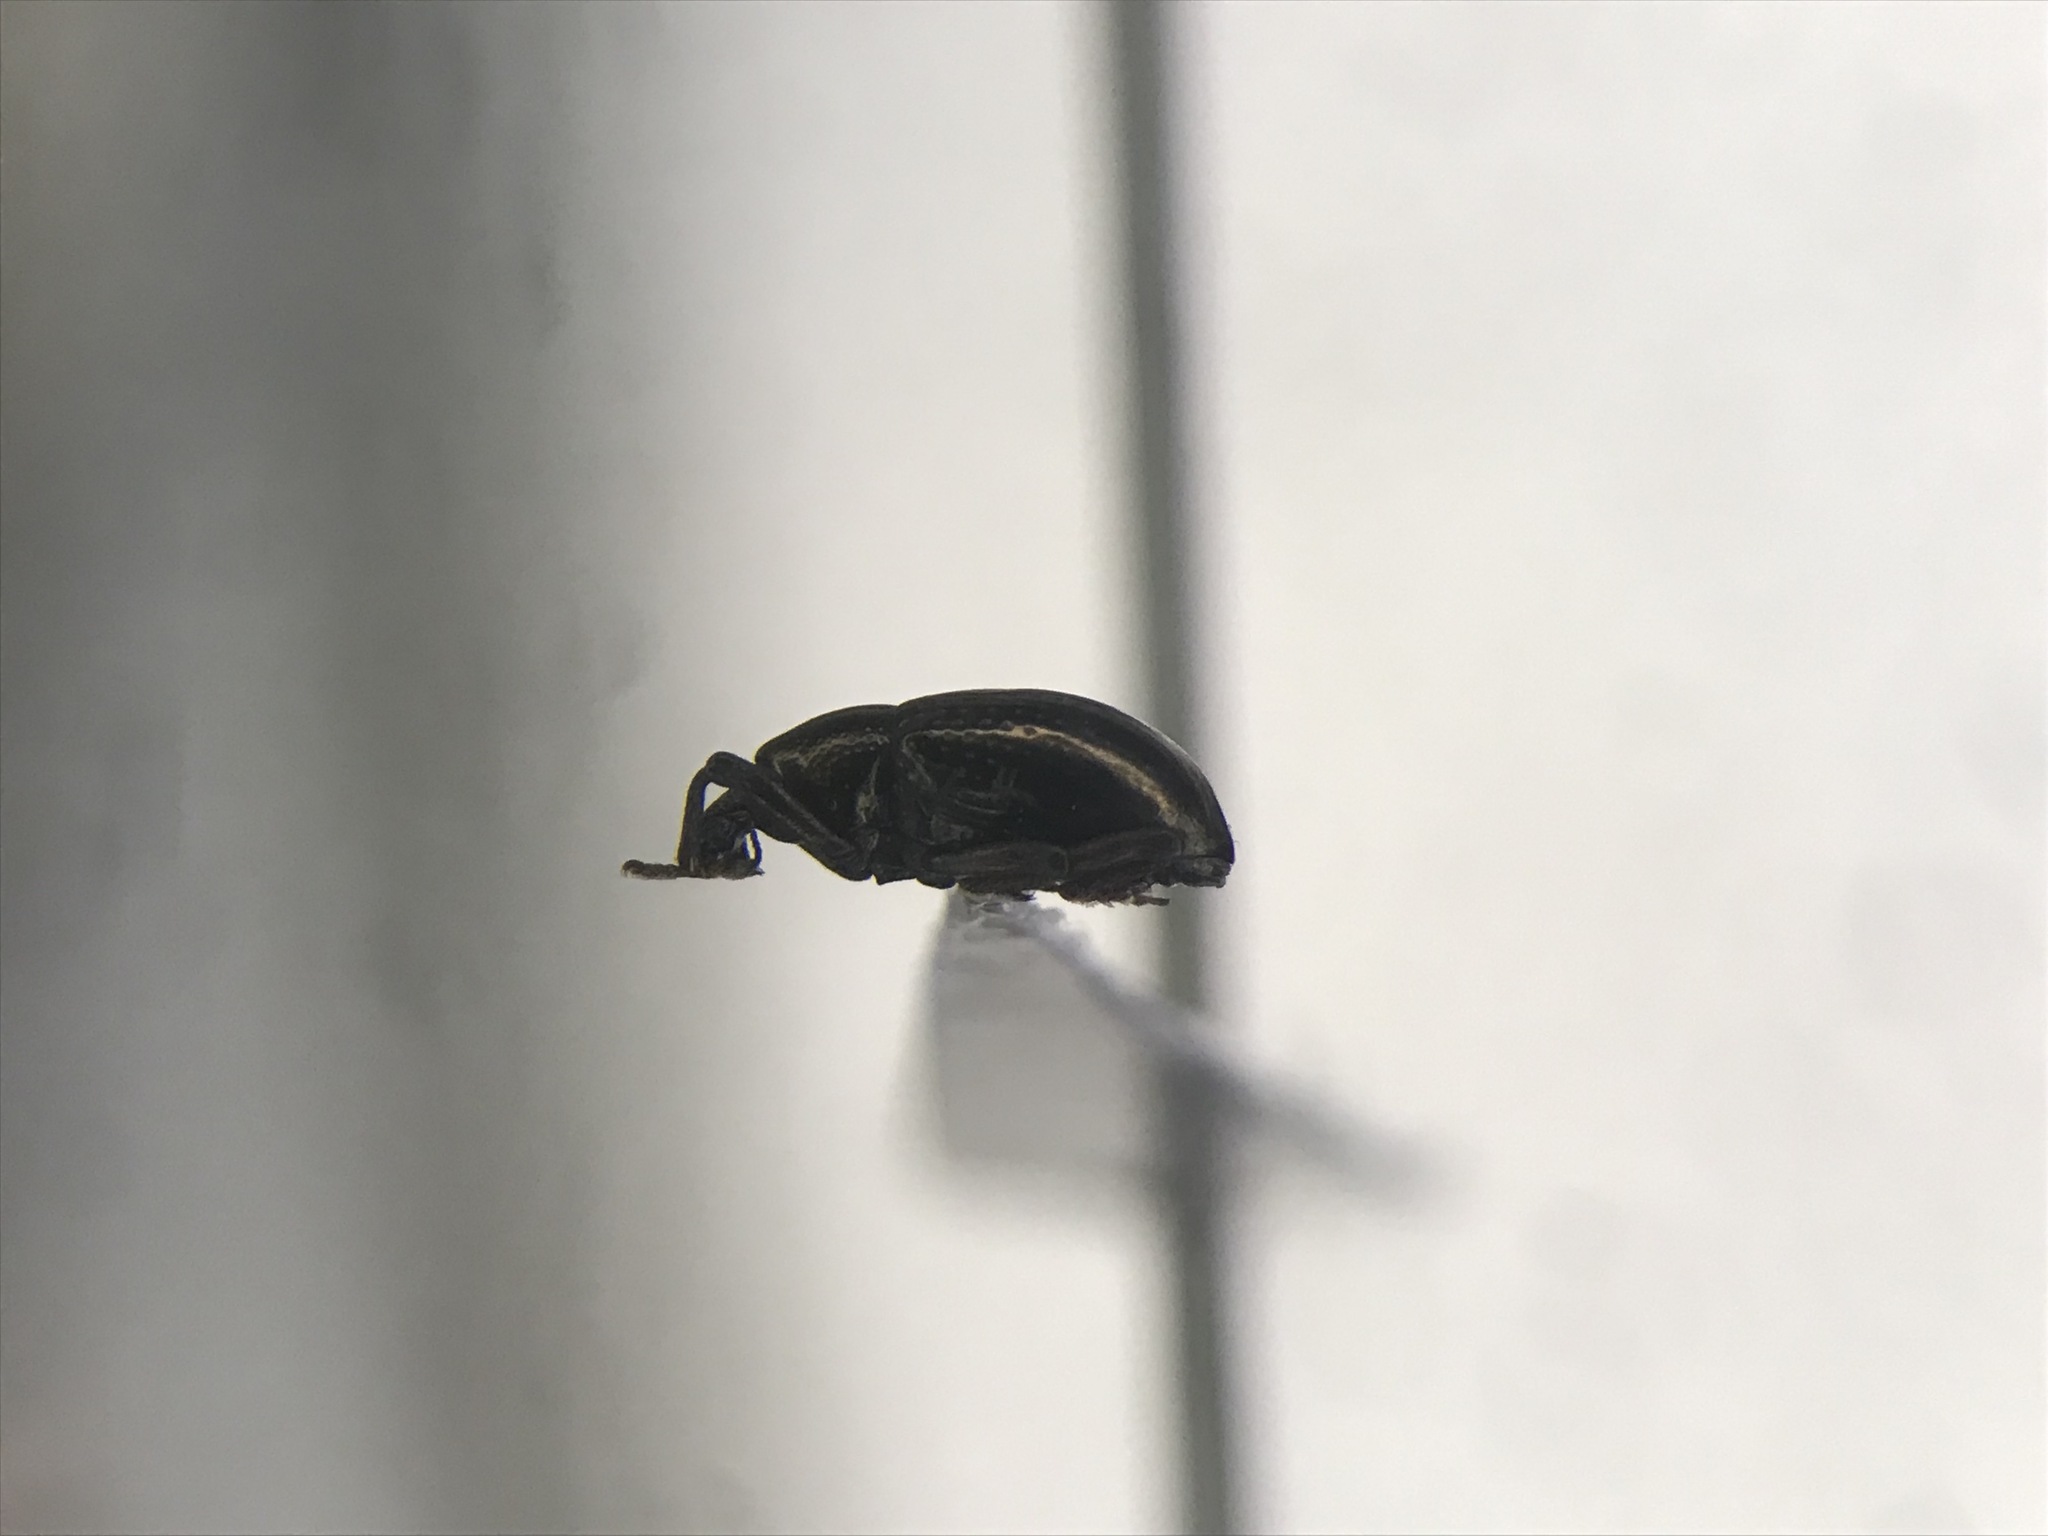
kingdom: Animalia
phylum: Arthropoda
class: Insecta
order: Coleoptera
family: Curculionidae
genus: Tyloderma
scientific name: Tyloderma aereum
